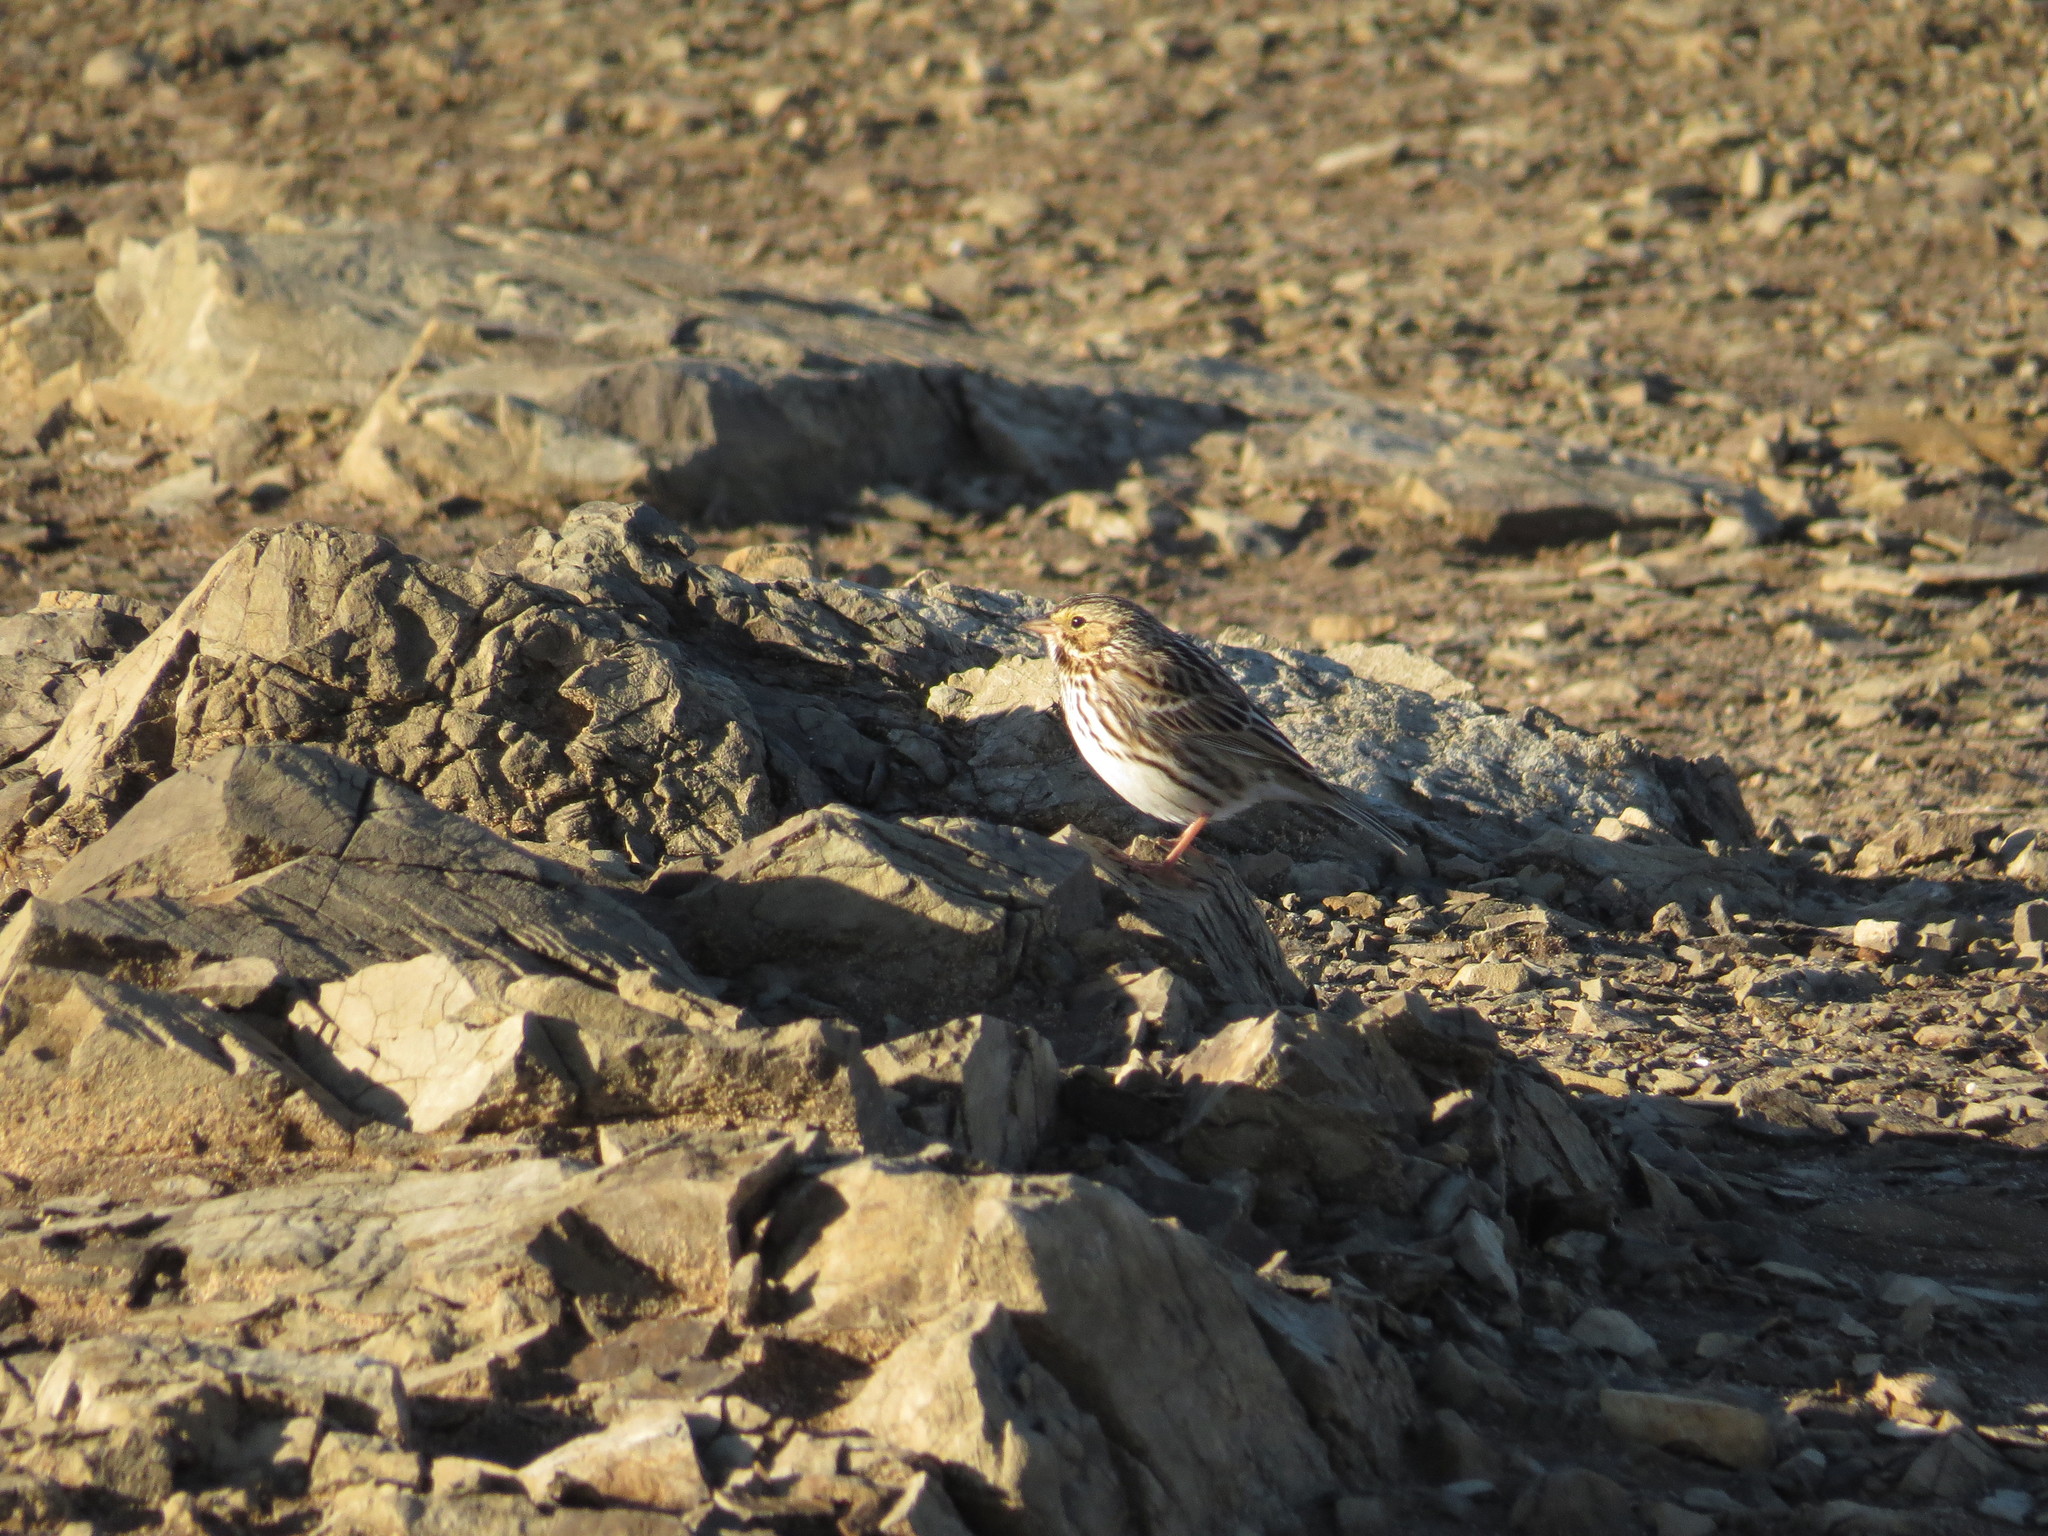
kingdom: Animalia
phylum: Chordata
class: Aves
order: Passeriformes
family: Passerellidae
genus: Passerculus
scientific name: Passerculus sandwichensis
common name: Savannah sparrow
